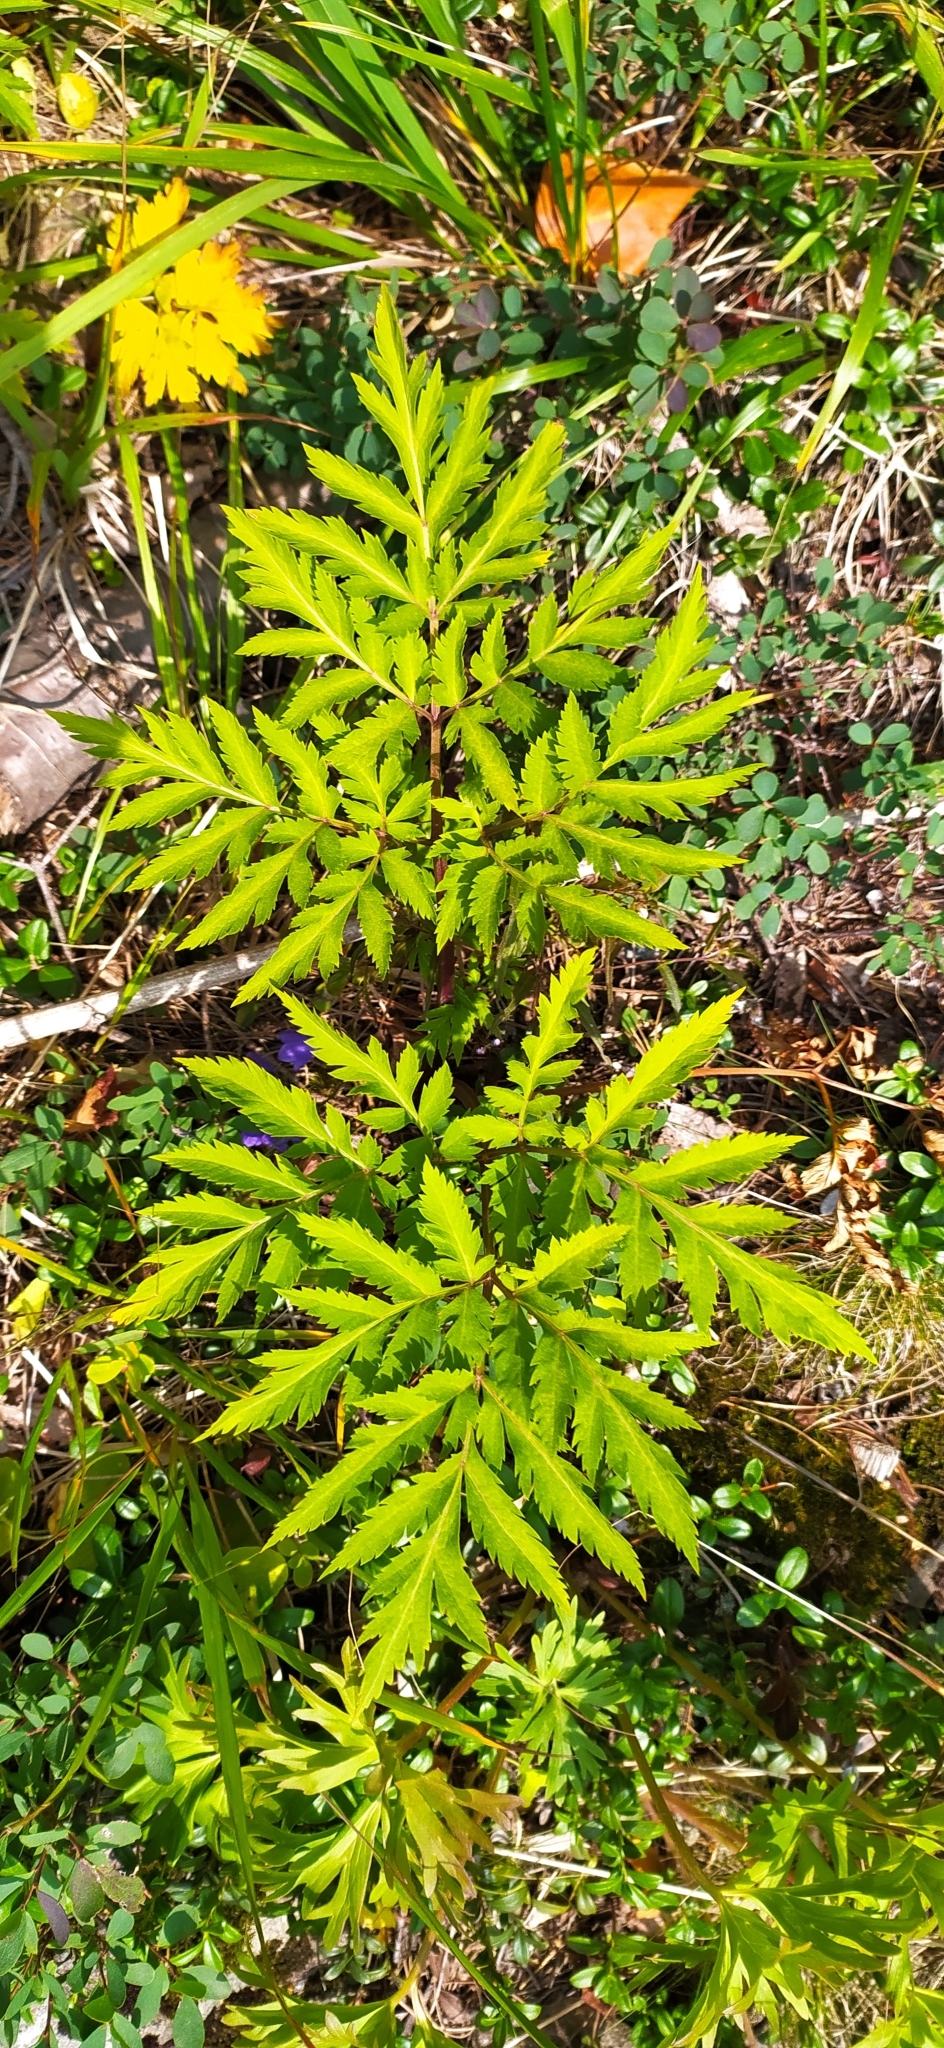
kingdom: Plantae
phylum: Tracheophyta
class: Magnoliopsida
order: Apiales
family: Apiaceae
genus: Pleurospermum
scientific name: Pleurospermum uralense
